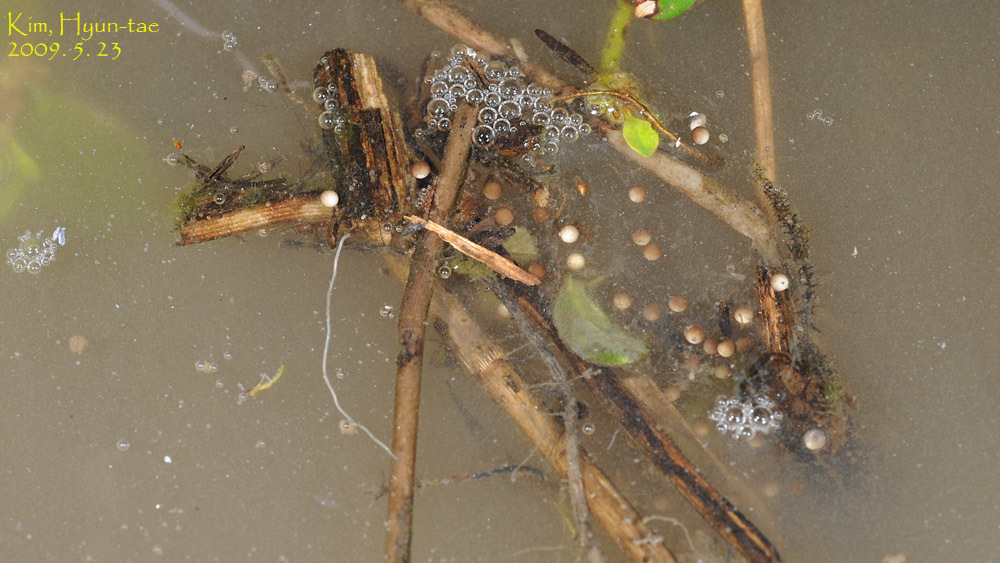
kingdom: Animalia
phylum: Chordata
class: Amphibia
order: Anura
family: Ranidae
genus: Glandirana
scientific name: Glandirana emeljanovi
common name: Northeast china rough-skinned frog
